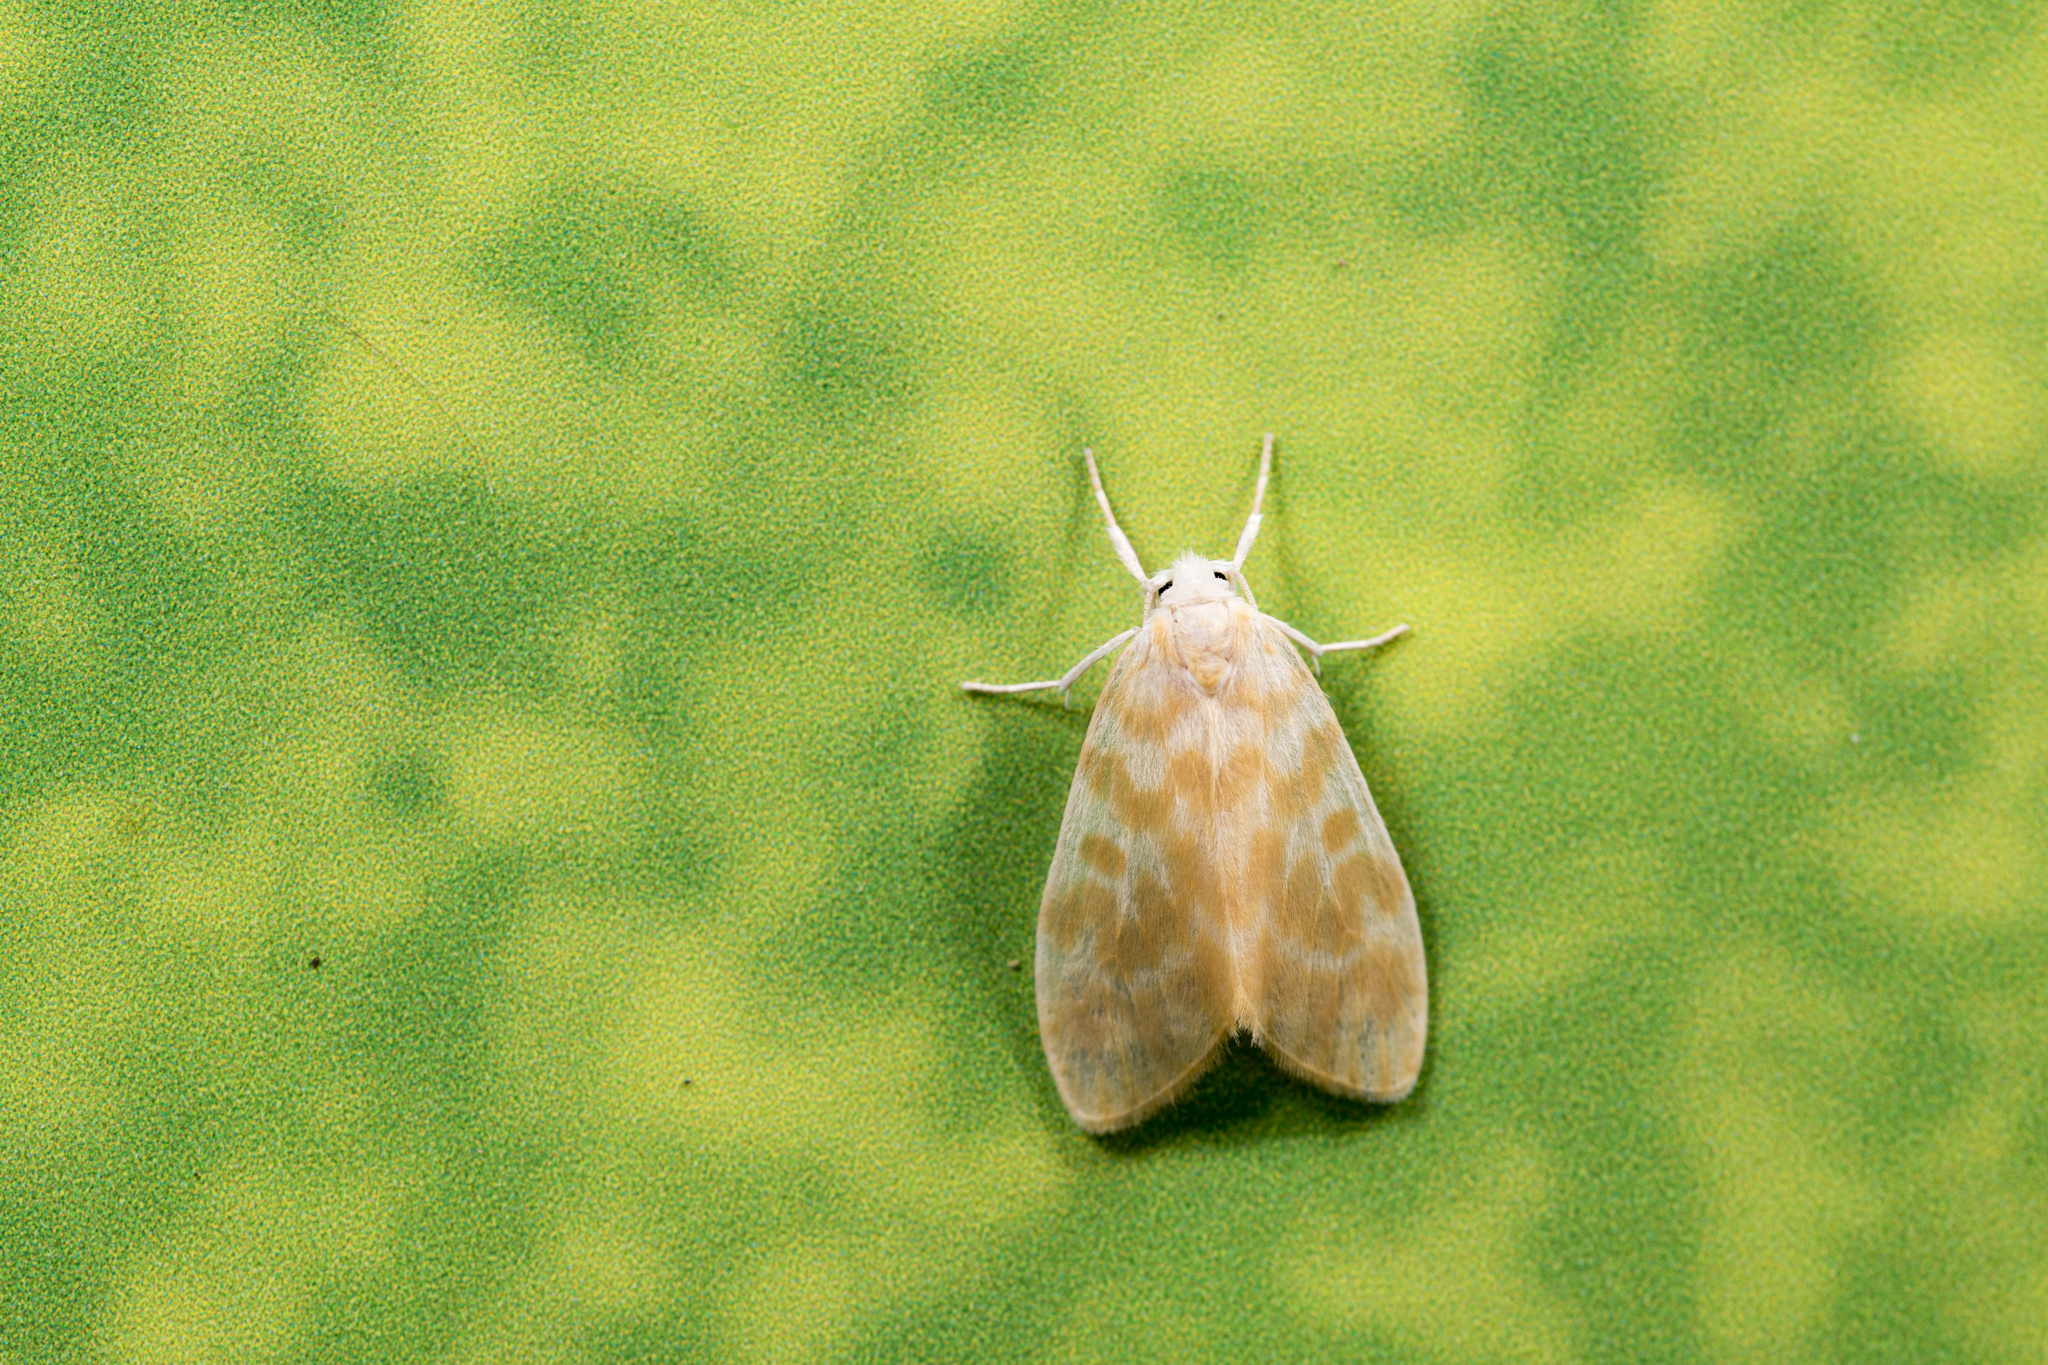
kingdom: Animalia
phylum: Arthropoda
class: Insecta
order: Lepidoptera
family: Erebidae
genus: Hemipsilia
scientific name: Hemipsilia coavestis
